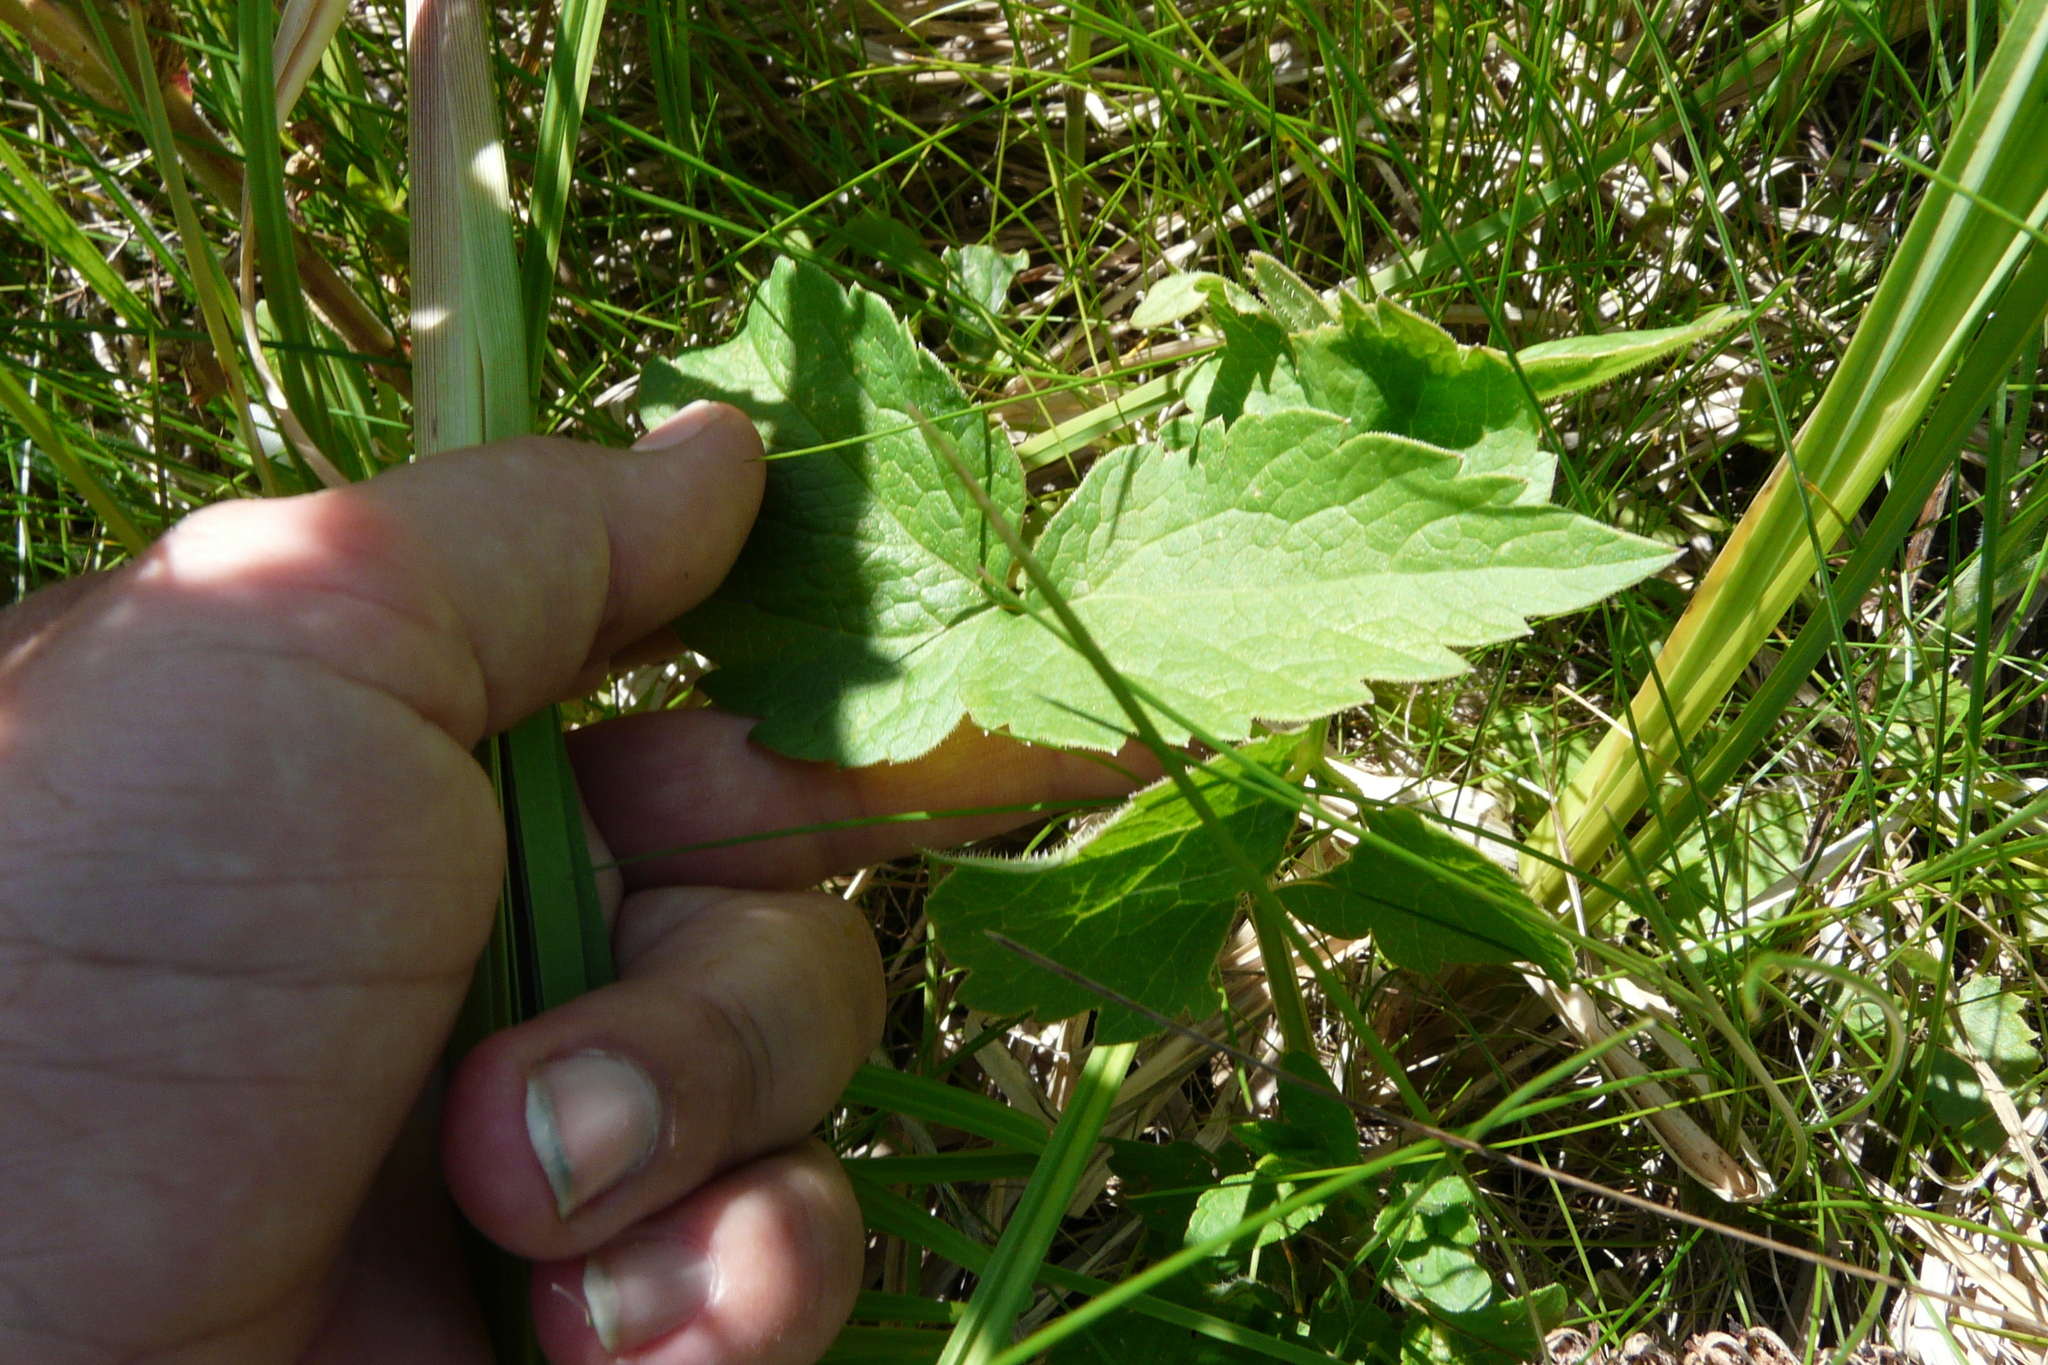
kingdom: Plantae
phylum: Tracheophyta
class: Magnoliopsida
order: Apiales
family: Apiaceae
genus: Ostericum
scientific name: Ostericum palustre
